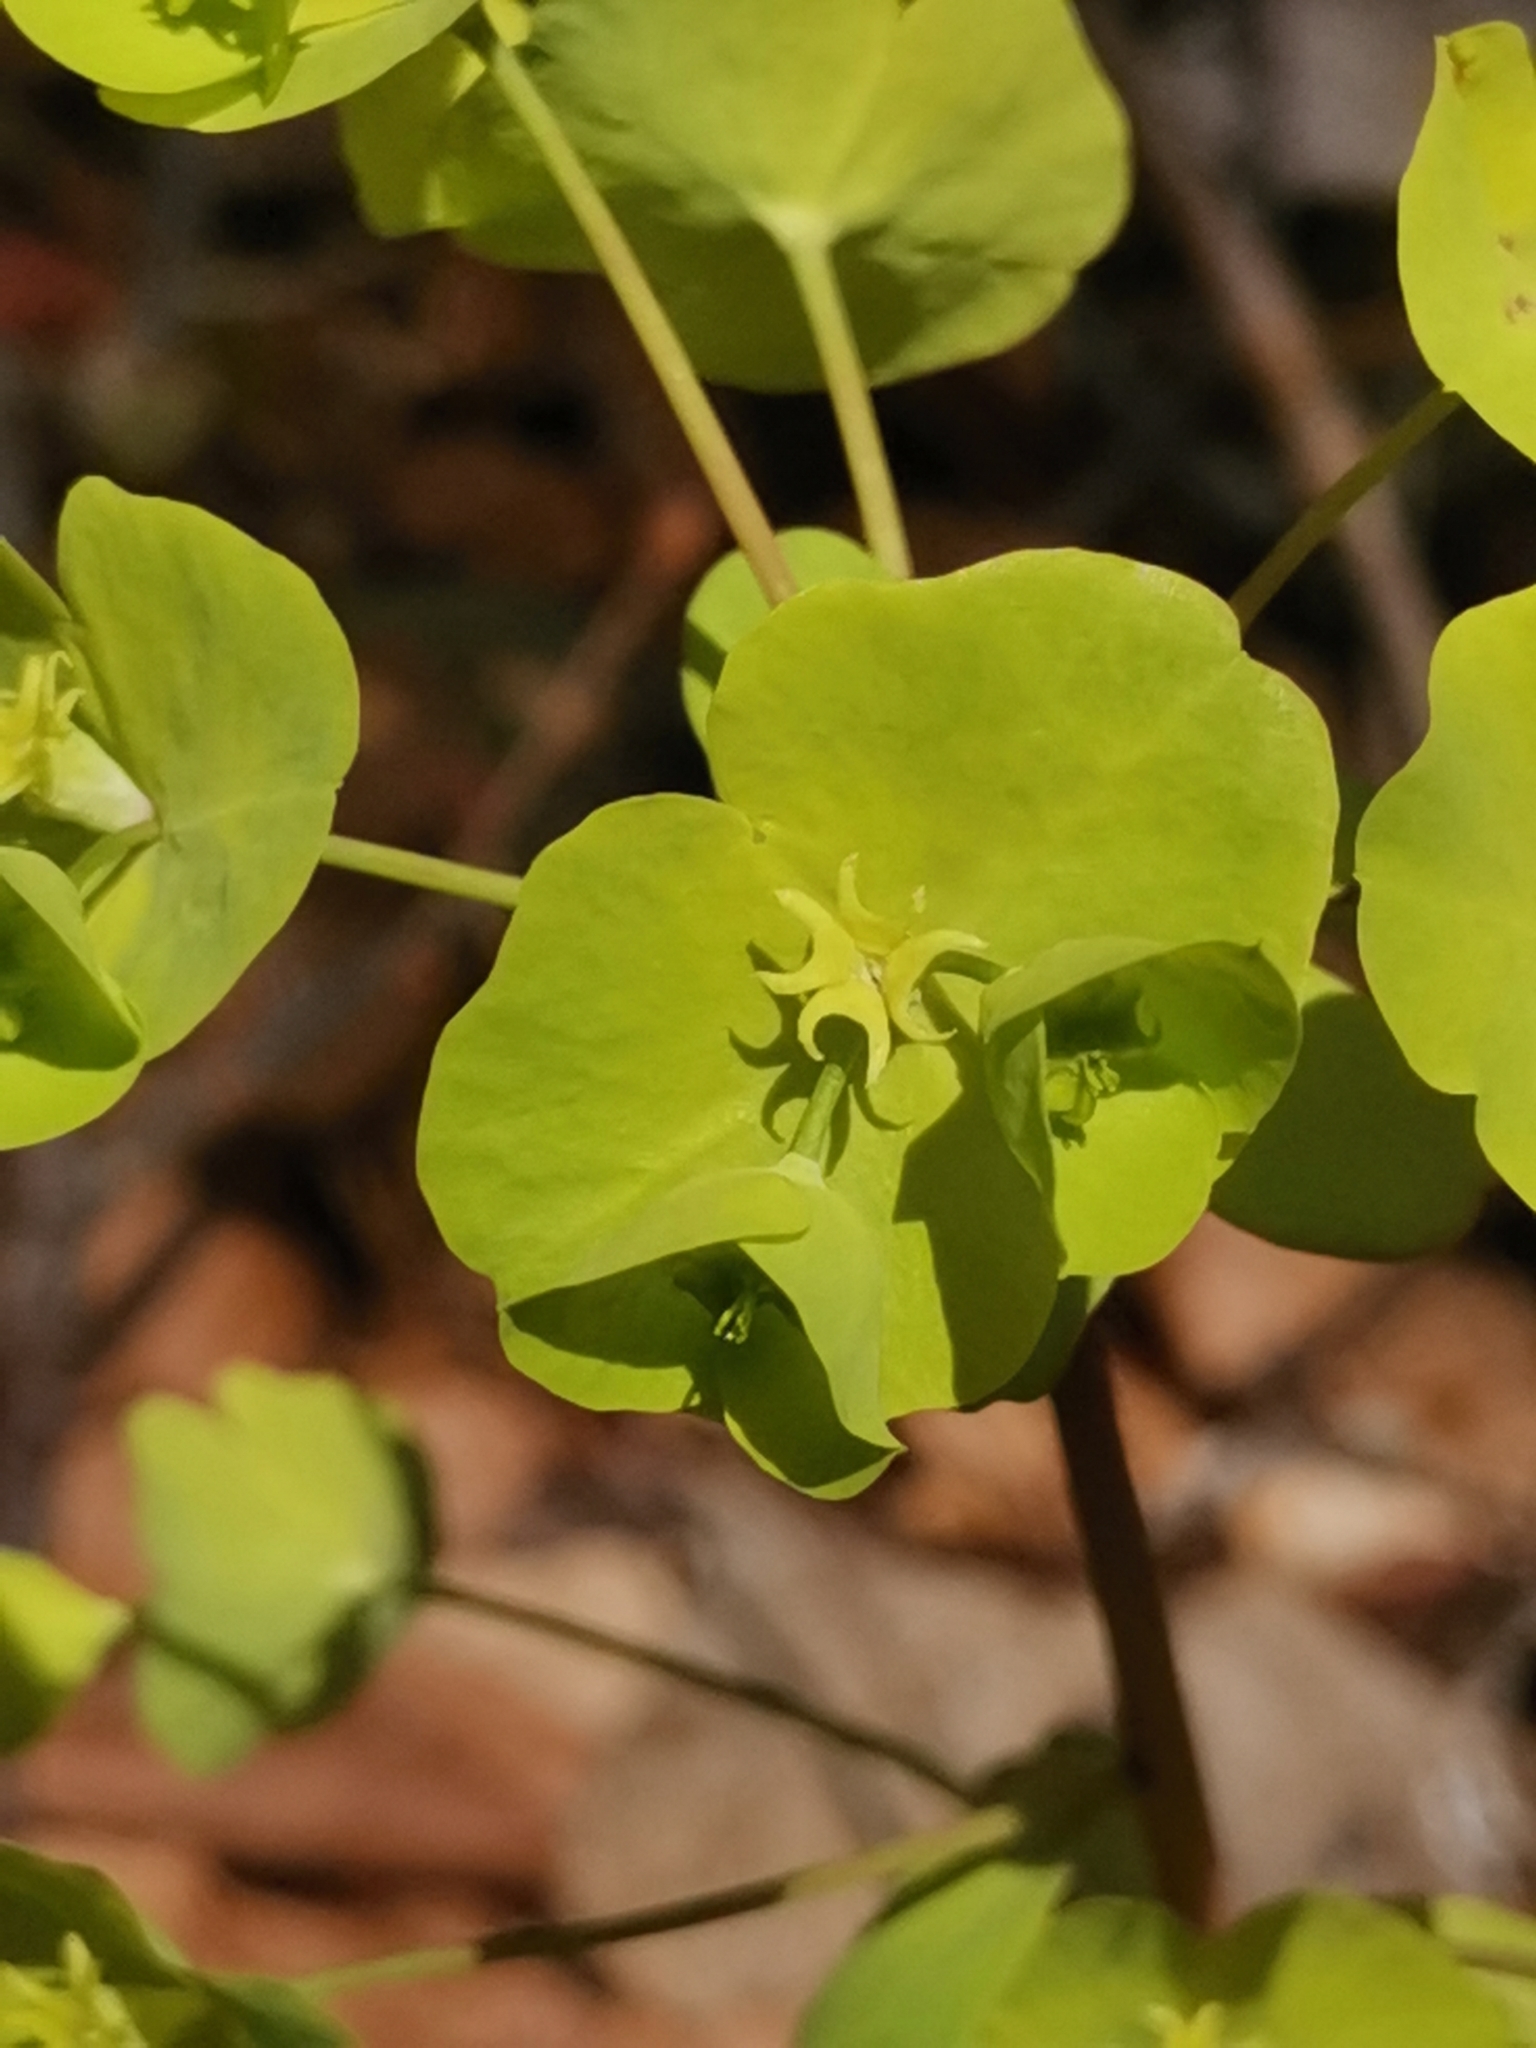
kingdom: Plantae
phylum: Tracheophyta
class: Magnoliopsida
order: Malpighiales
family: Euphorbiaceae
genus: Euphorbia
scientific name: Euphorbia amygdaloides
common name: Wood spurge
